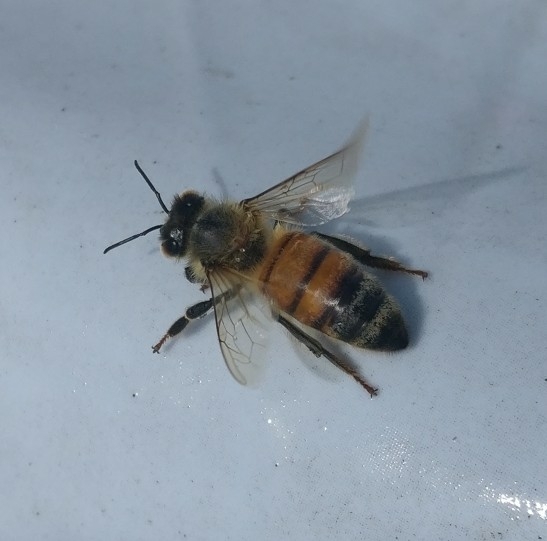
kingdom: Animalia
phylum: Arthropoda
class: Insecta
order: Hymenoptera
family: Apidae
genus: Apis
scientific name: Apis mellifera
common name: Honey bee
